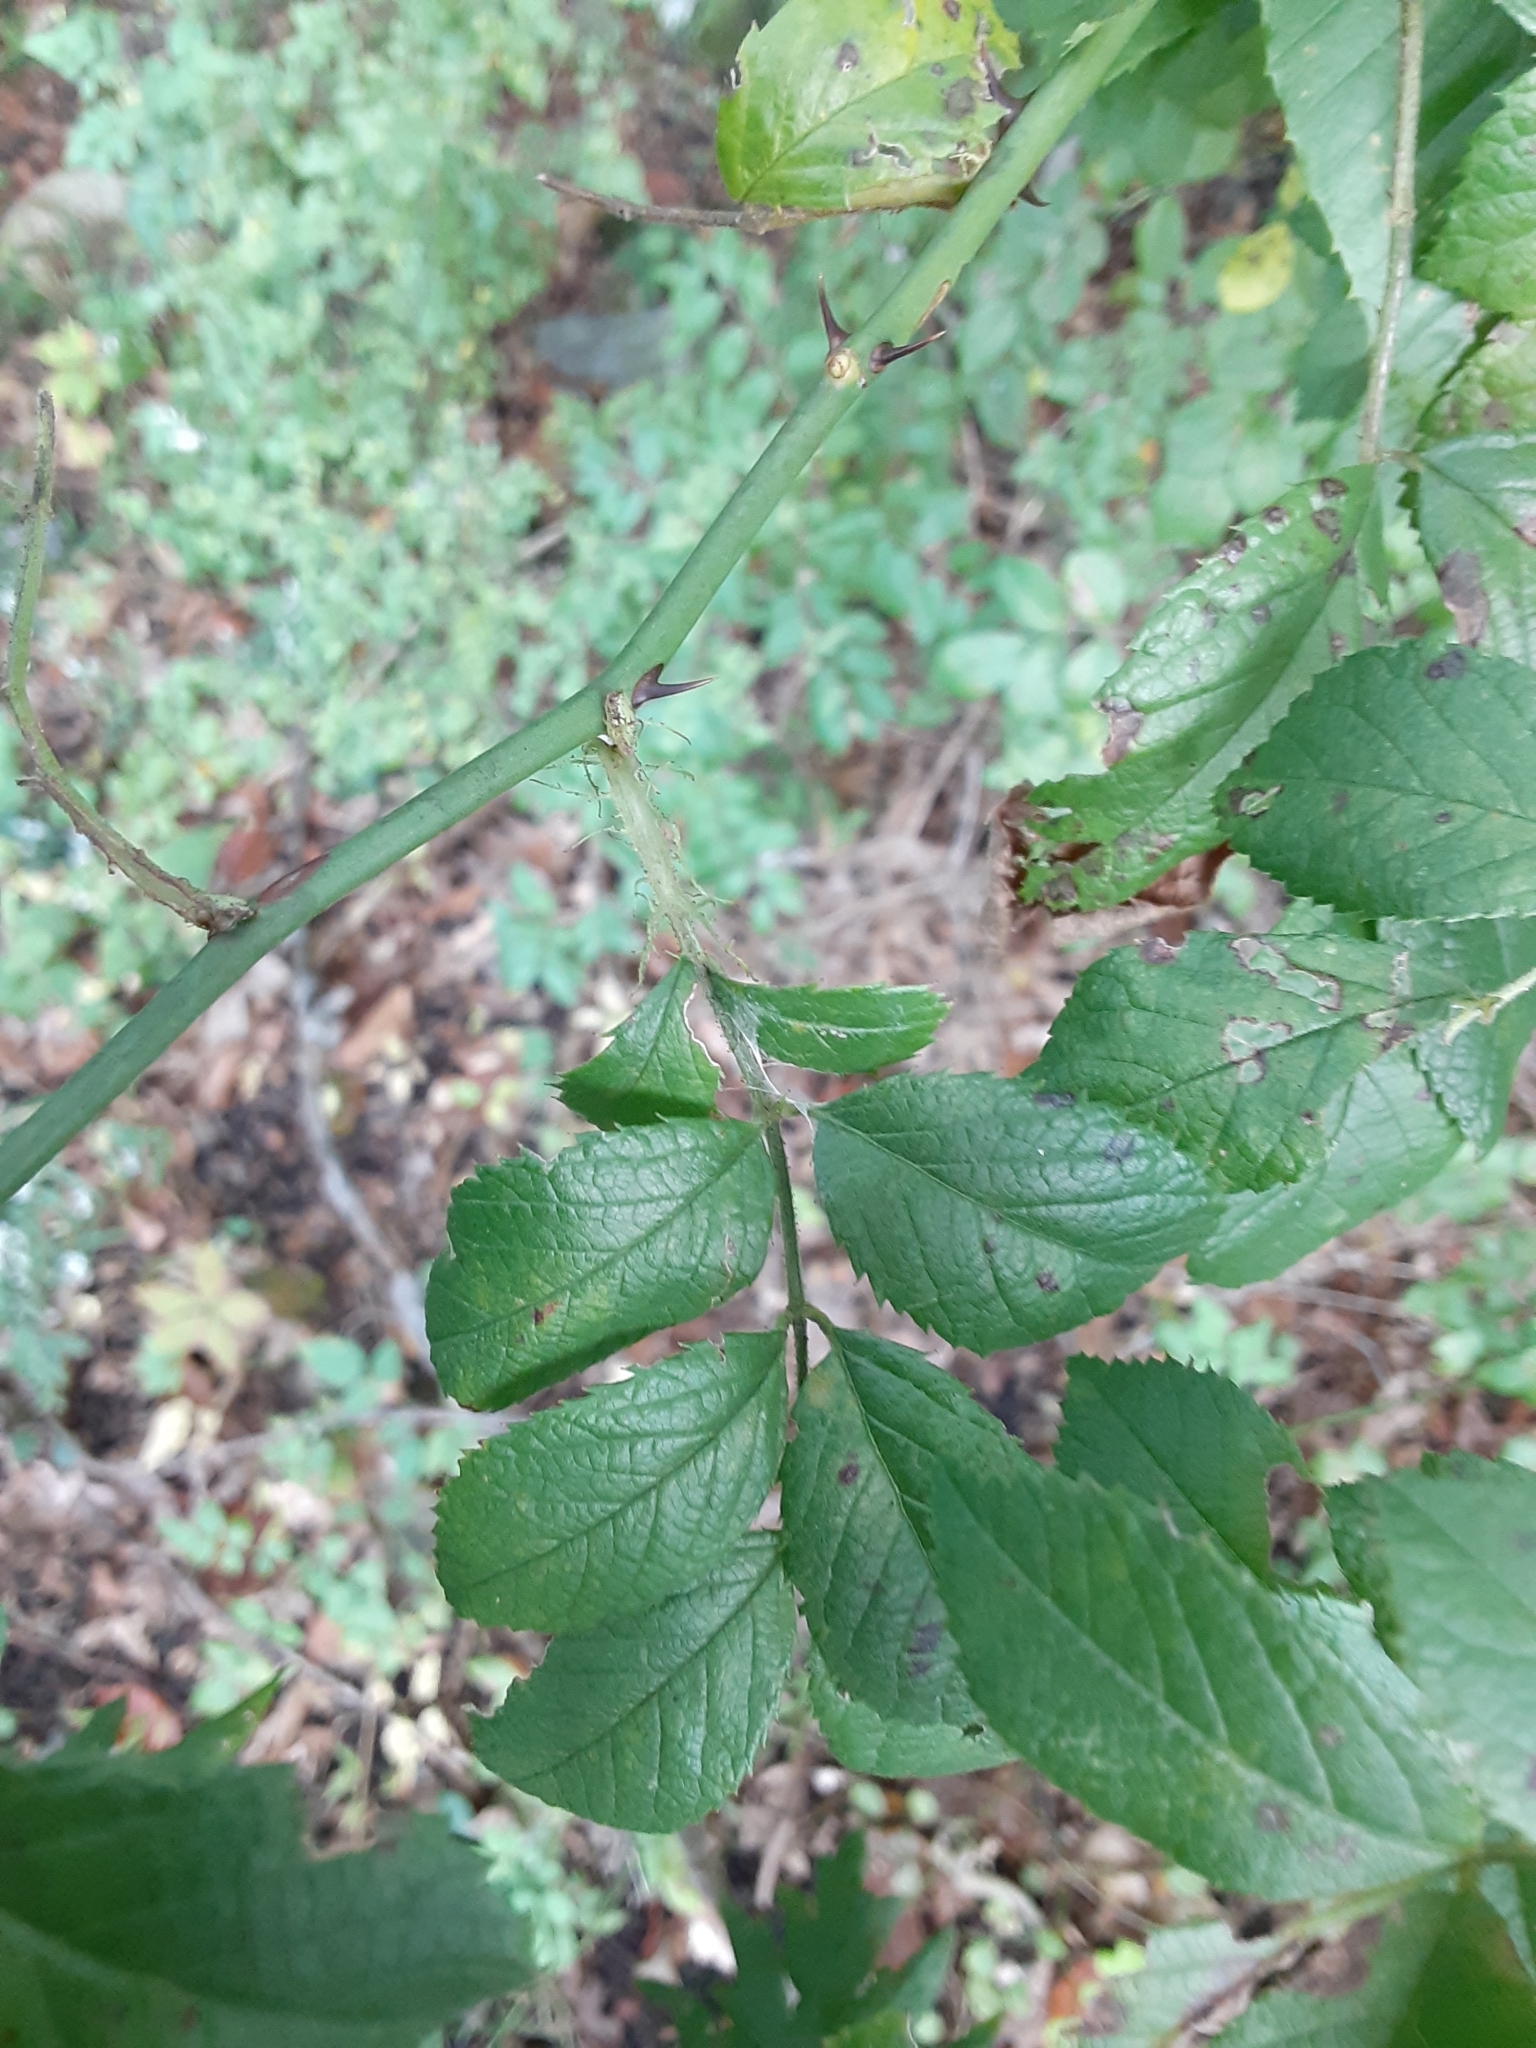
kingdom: Plantae
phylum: Tracheophyta
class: Magnoliopsida
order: Rosales
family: Rosaceae
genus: Rosa
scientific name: Rosa multiflora
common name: Multiflora rose
